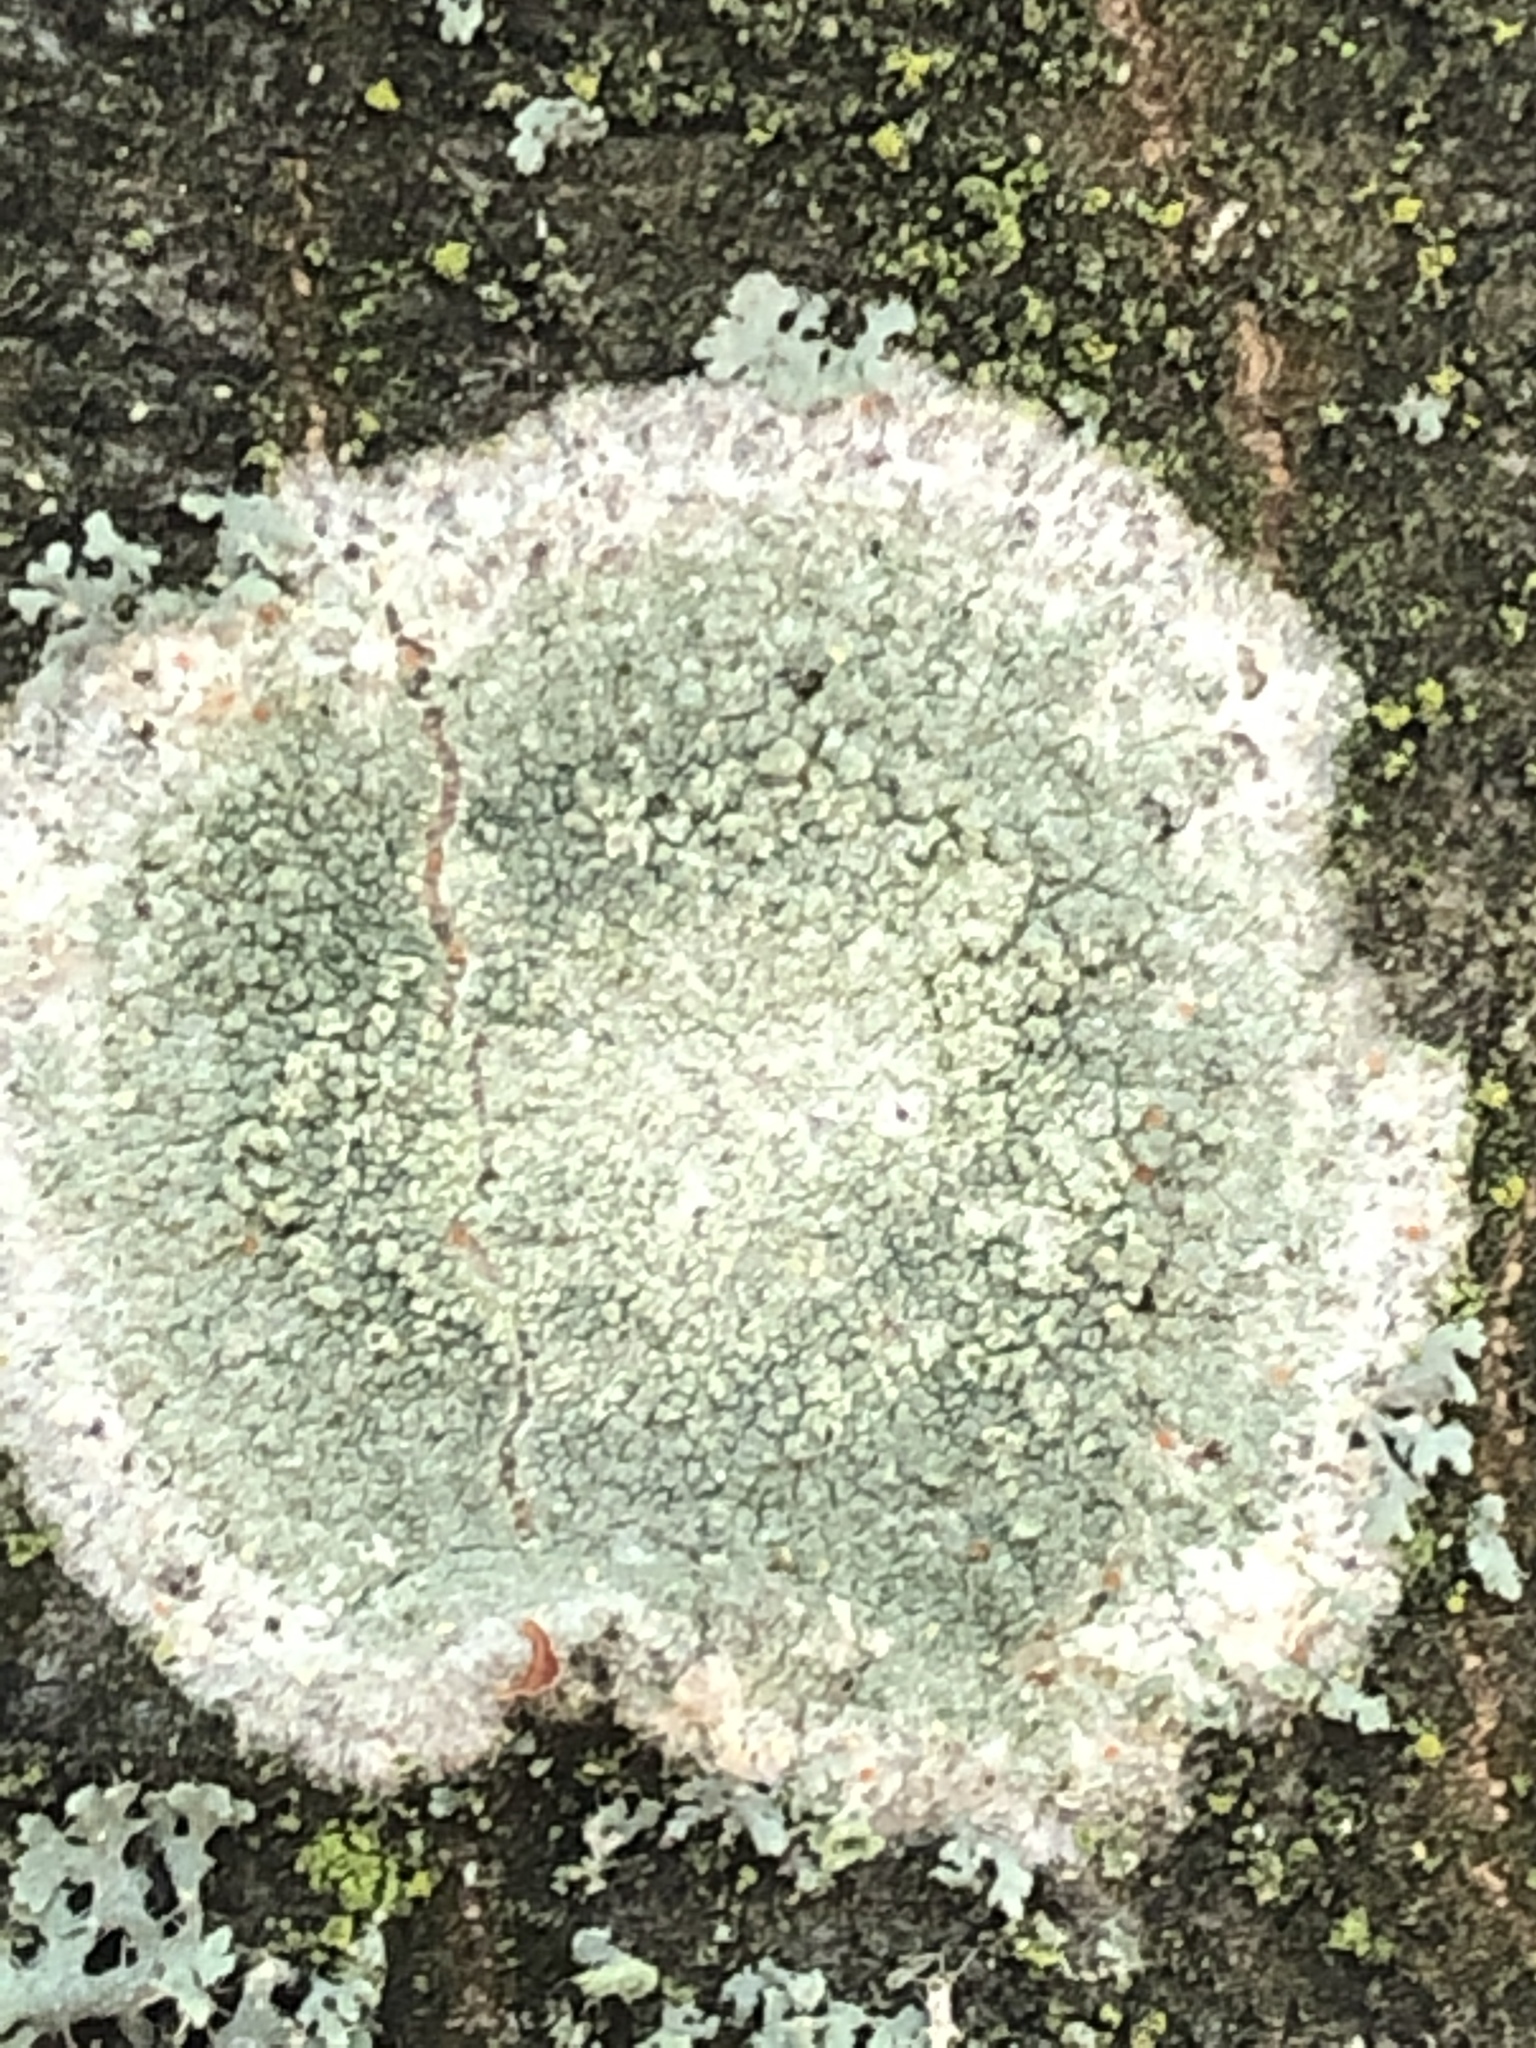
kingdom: Fungi
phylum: Ascomycota
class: Lecanoromycetes
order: Ostropales
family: Phlyctidaceae
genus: Phlyctis
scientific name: Phlyctis argena
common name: Whitewash lichen
